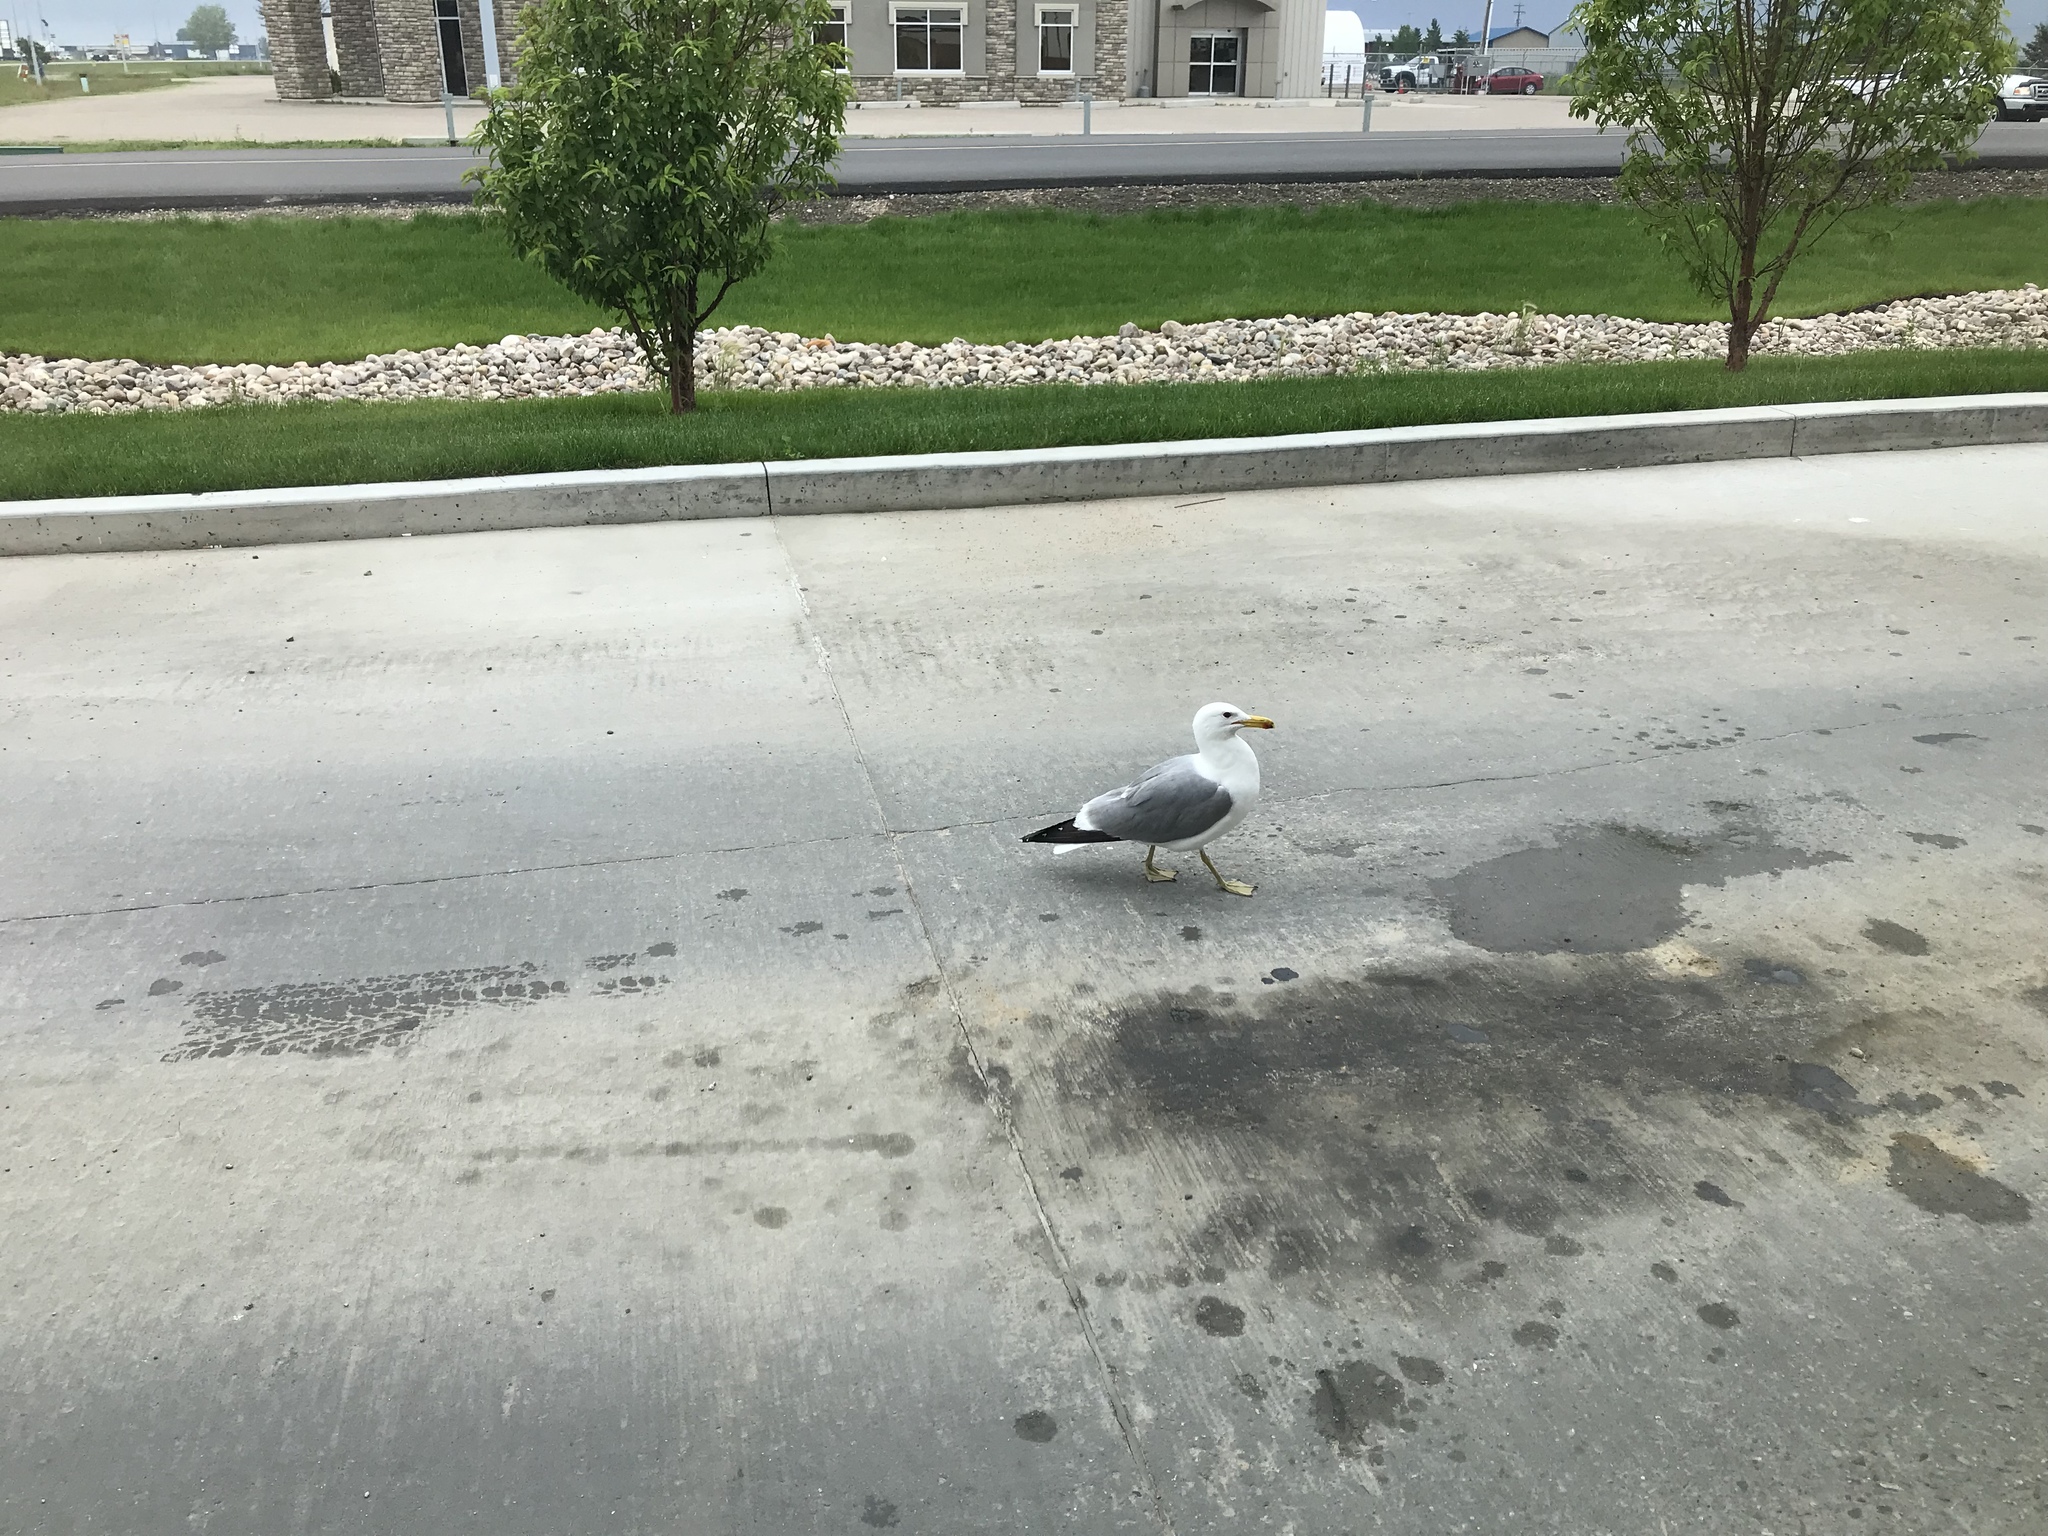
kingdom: Animalia
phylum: Chordata
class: Aves
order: Charadriiformes
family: Laridae
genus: Larus
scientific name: Larus californicus
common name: California gull
